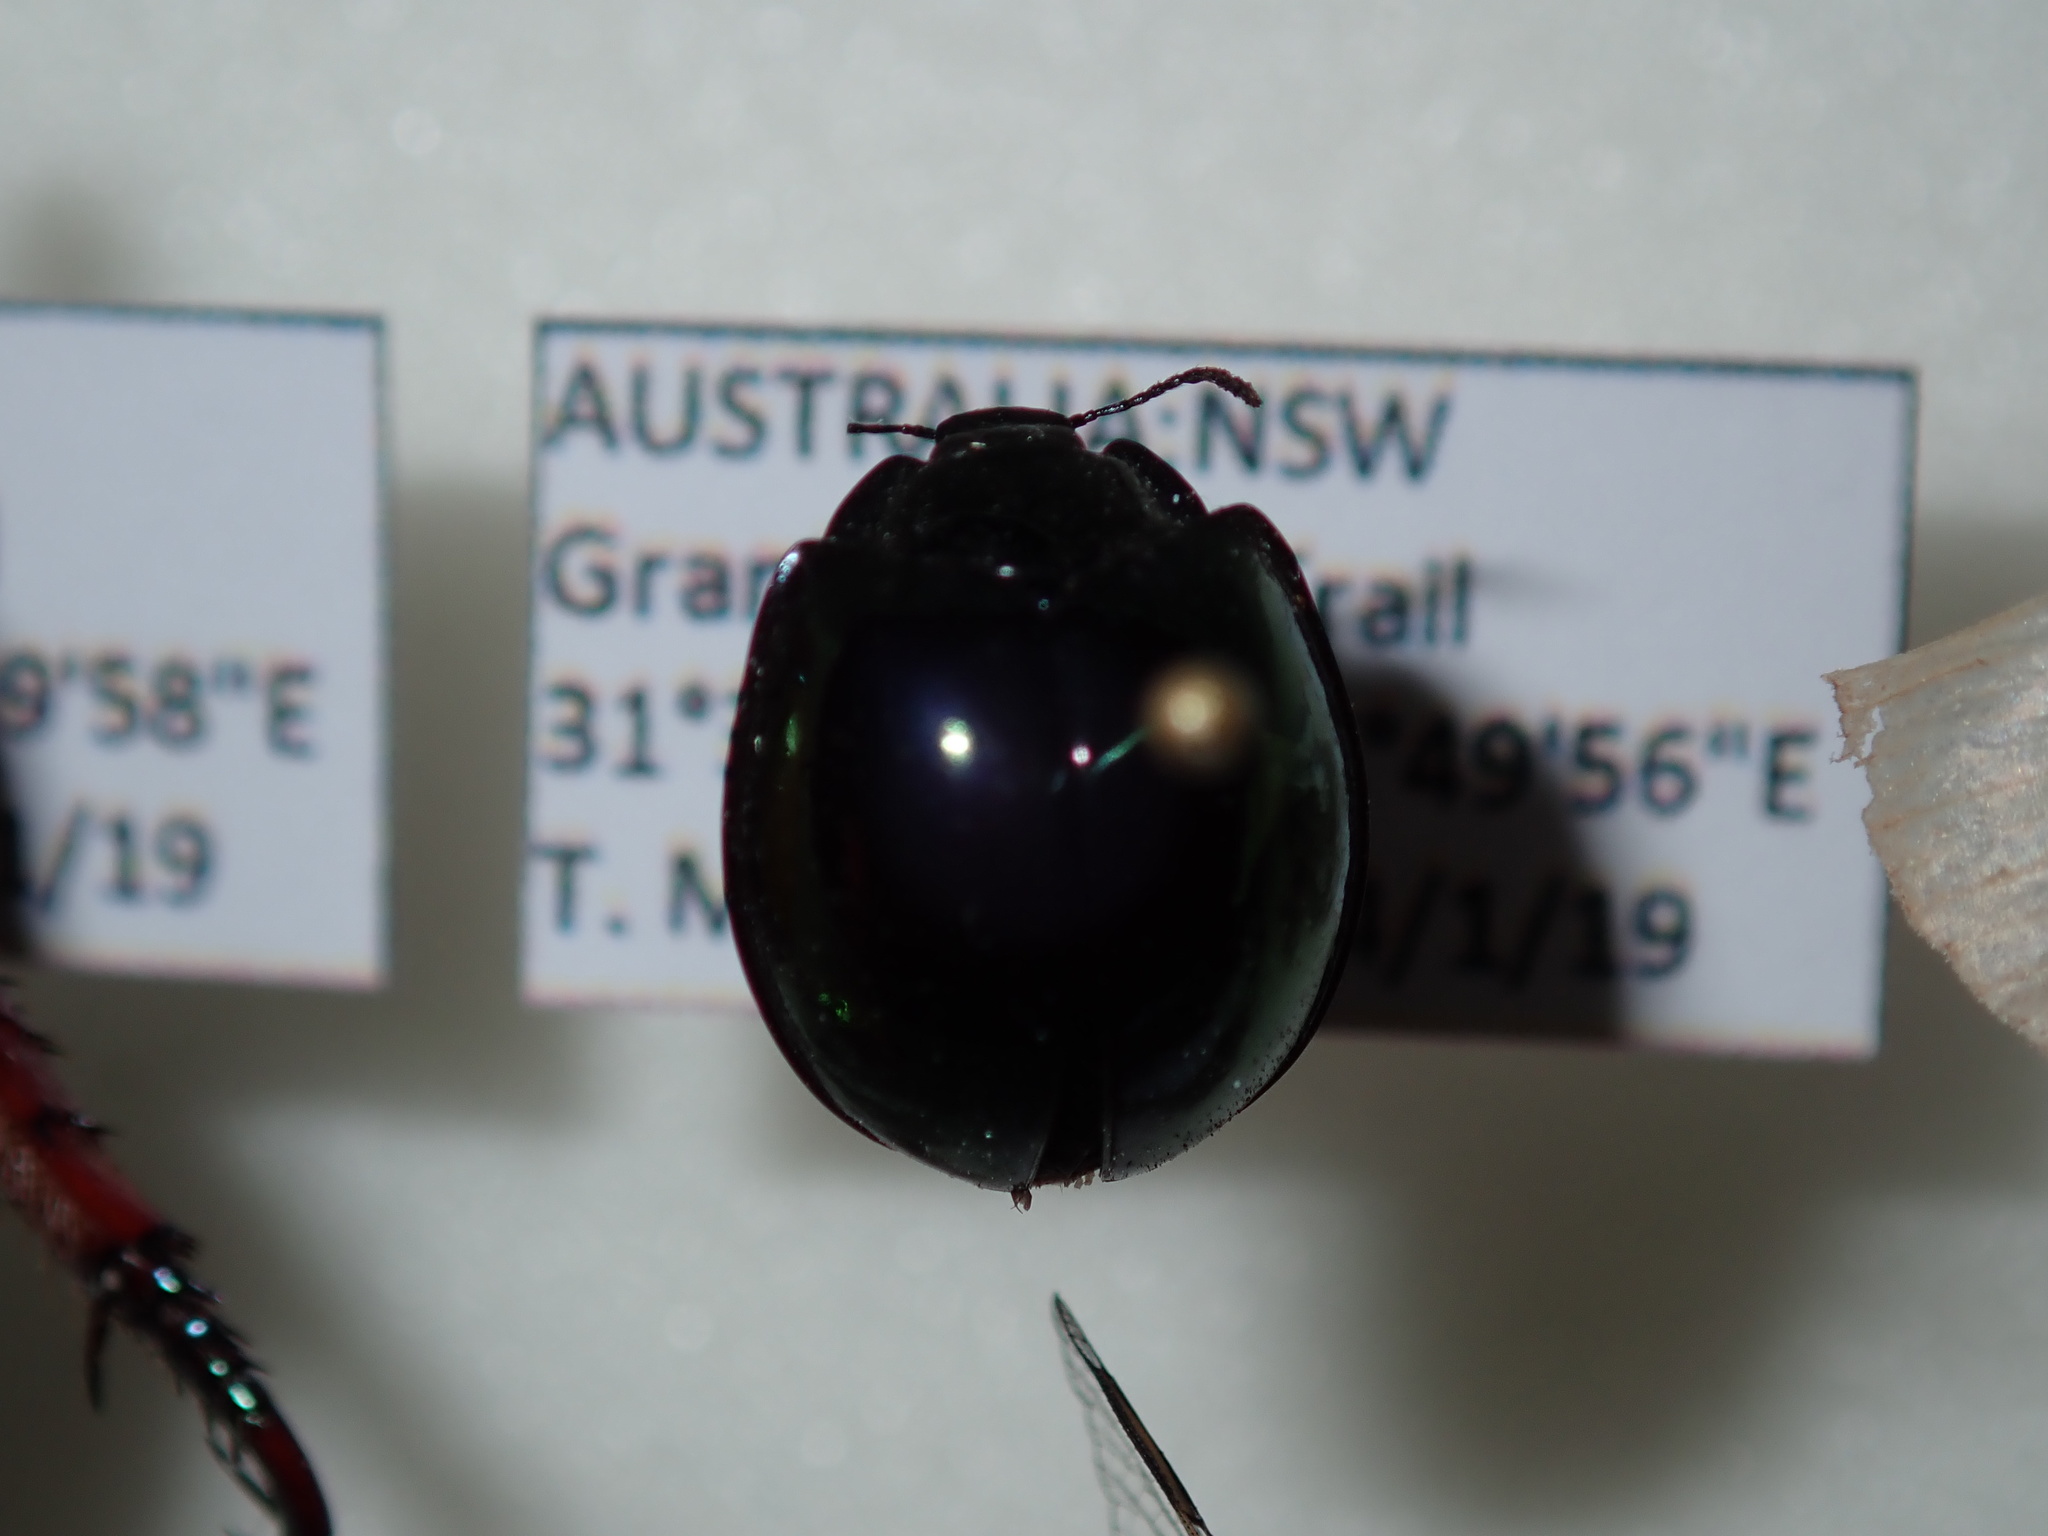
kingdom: Animalia
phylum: Arthropoda
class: Insecta
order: Coleoptera
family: Coccinellidae
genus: Halmus
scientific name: Halmus chalybeus
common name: Steel blue ladybird beetle
